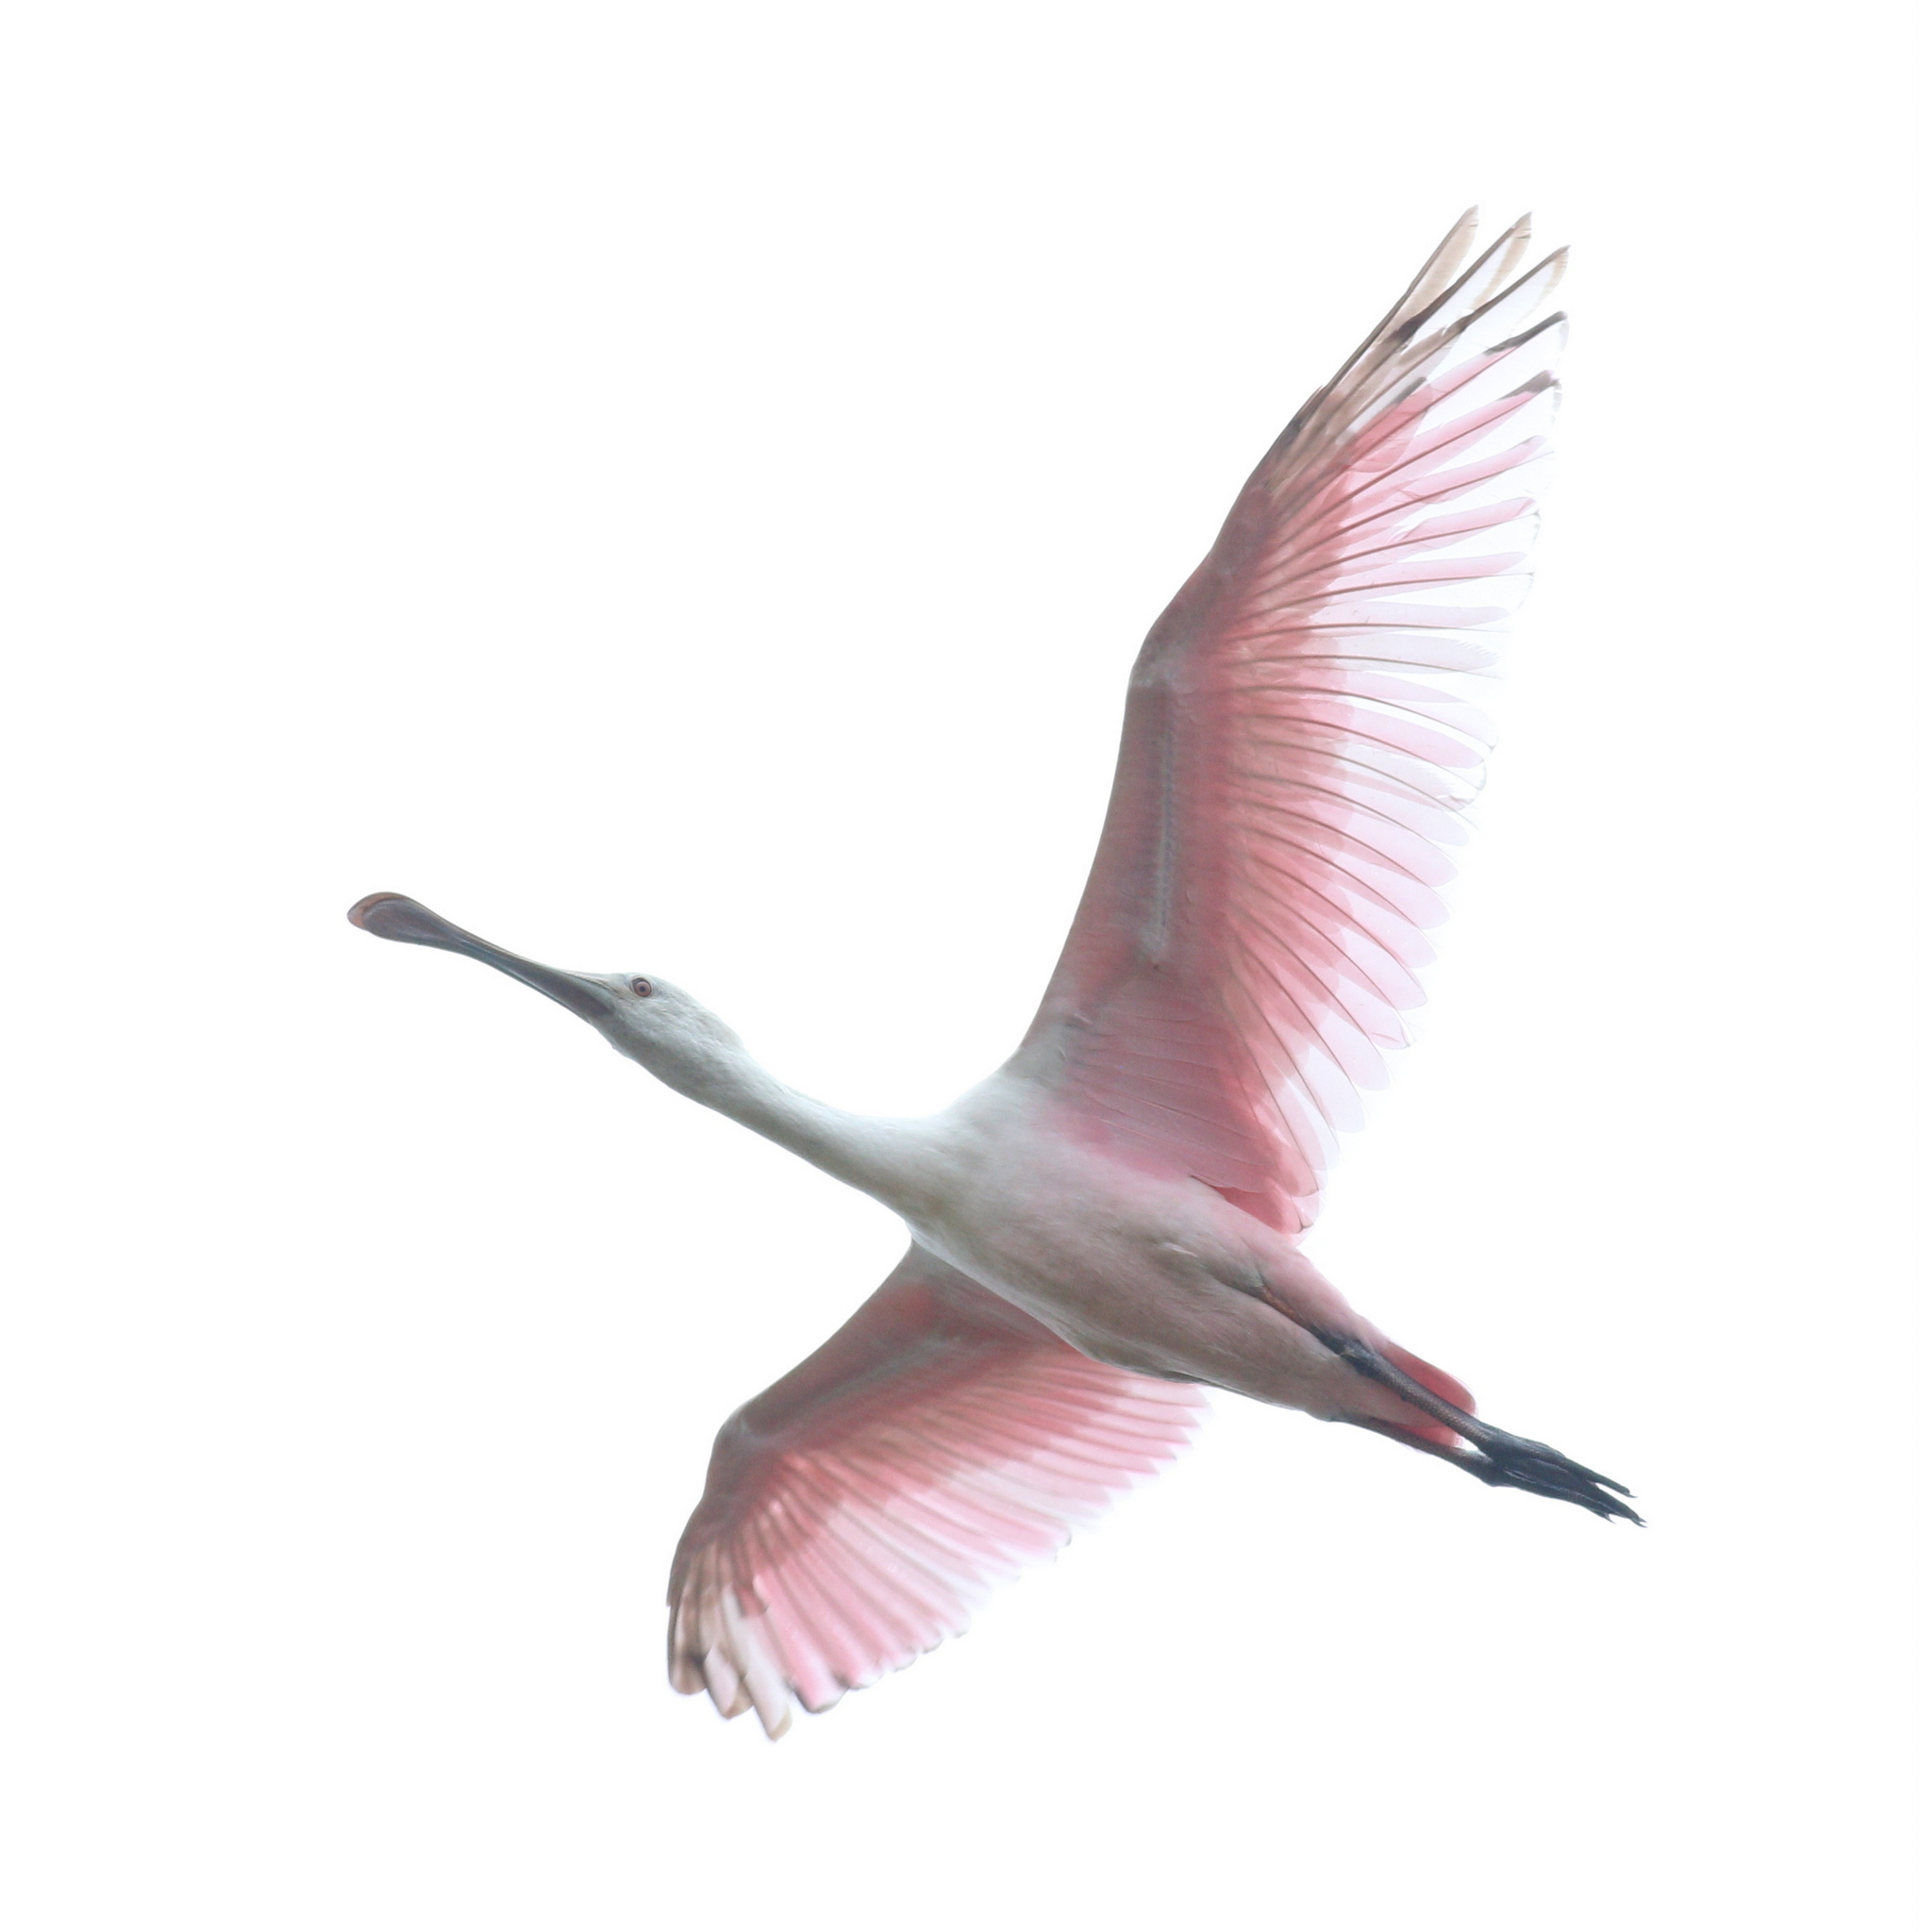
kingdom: Animalia
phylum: Chordata
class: Aves
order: Pelecaniformes
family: Threskiornithidae
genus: Platalea
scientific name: Platalea ajaja
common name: Roseate spoonbill
